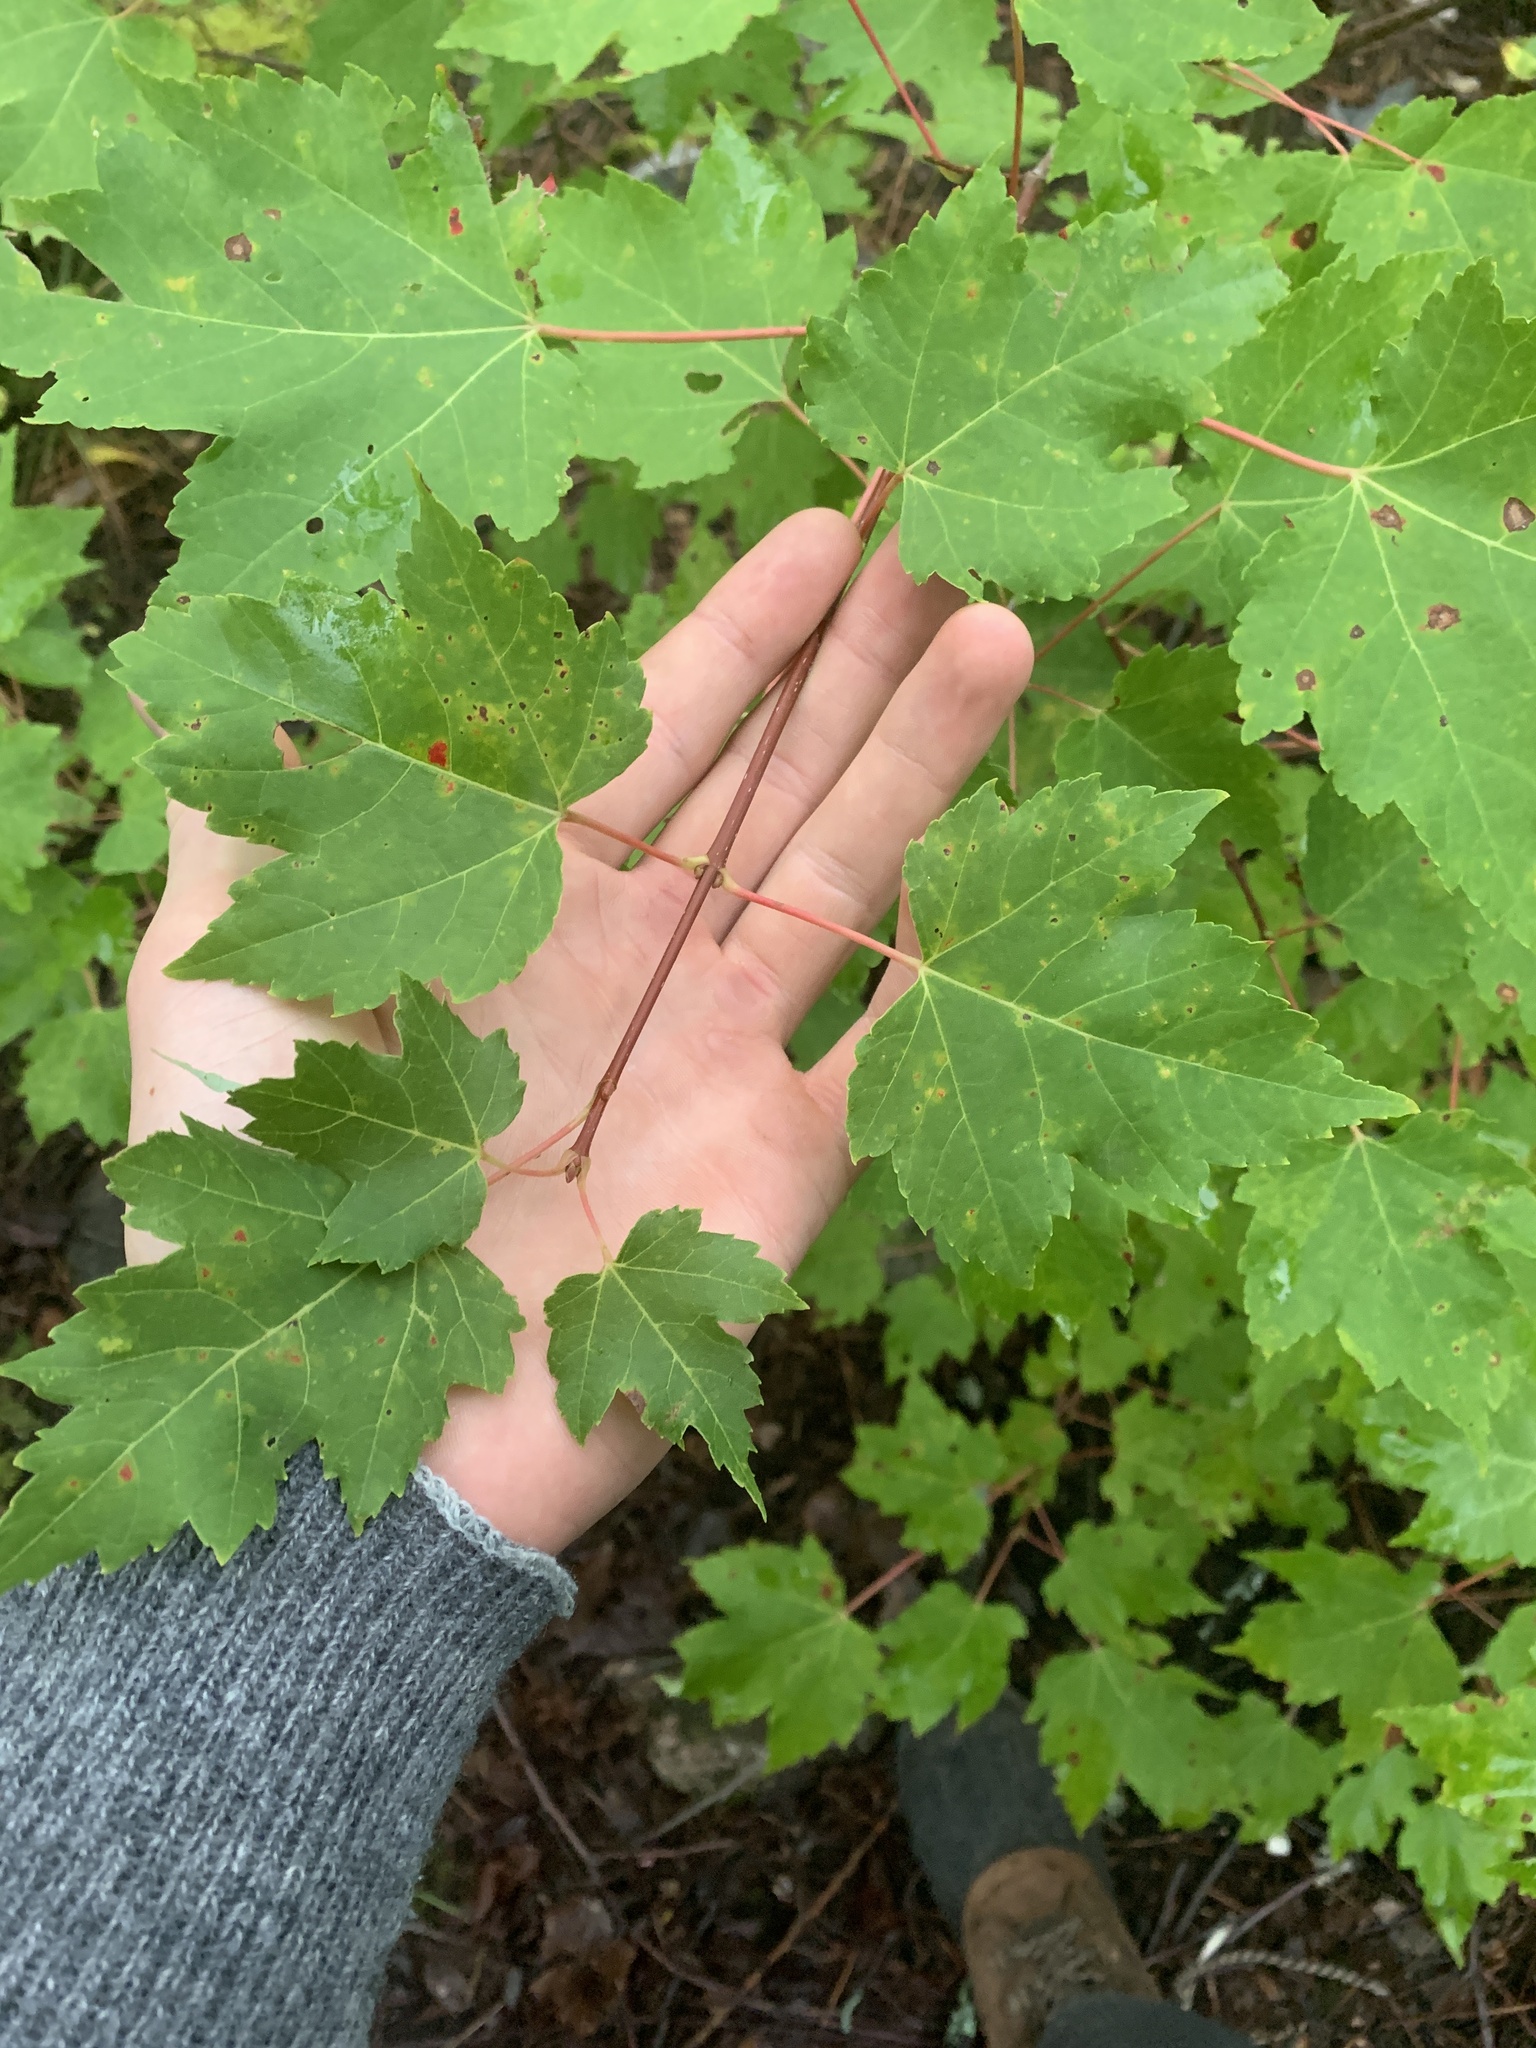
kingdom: Plantae
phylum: Tracheophyta
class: Magnoliopsida
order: Sapindales
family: Sapindaceae
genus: Acer
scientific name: Acer rubrum
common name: Red maple
